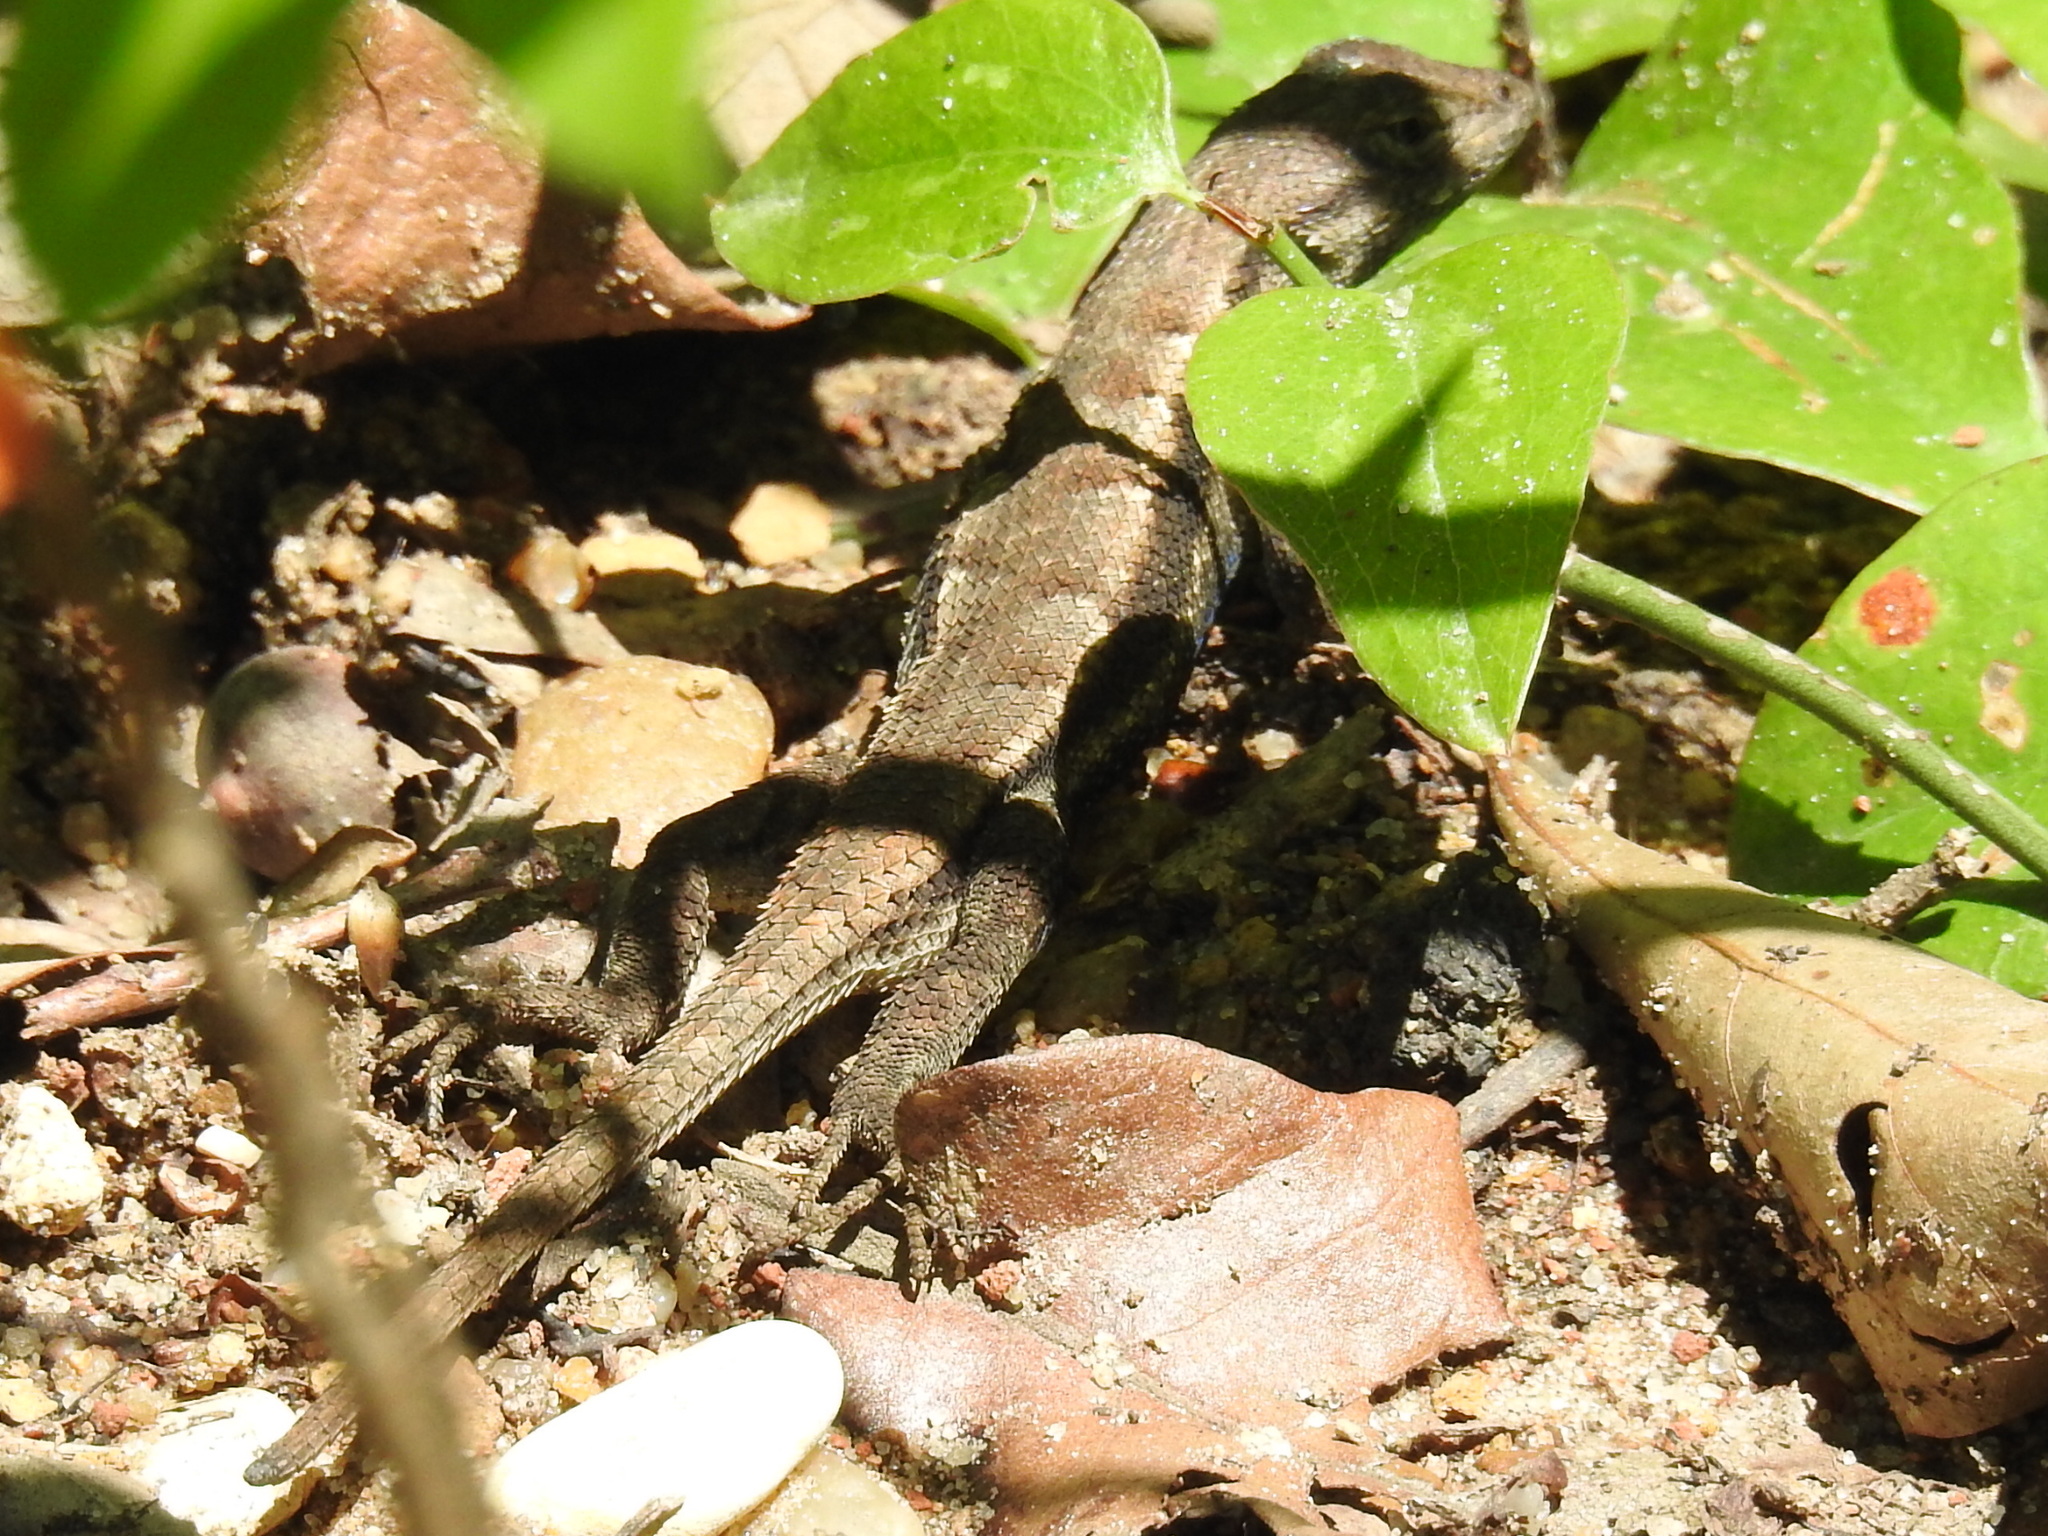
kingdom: Animalia
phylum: Chordata
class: Squamata
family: Phrynosomatidae
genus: Sceloporus
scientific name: Sceloporus consobrinus
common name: Southern prairie lizard
